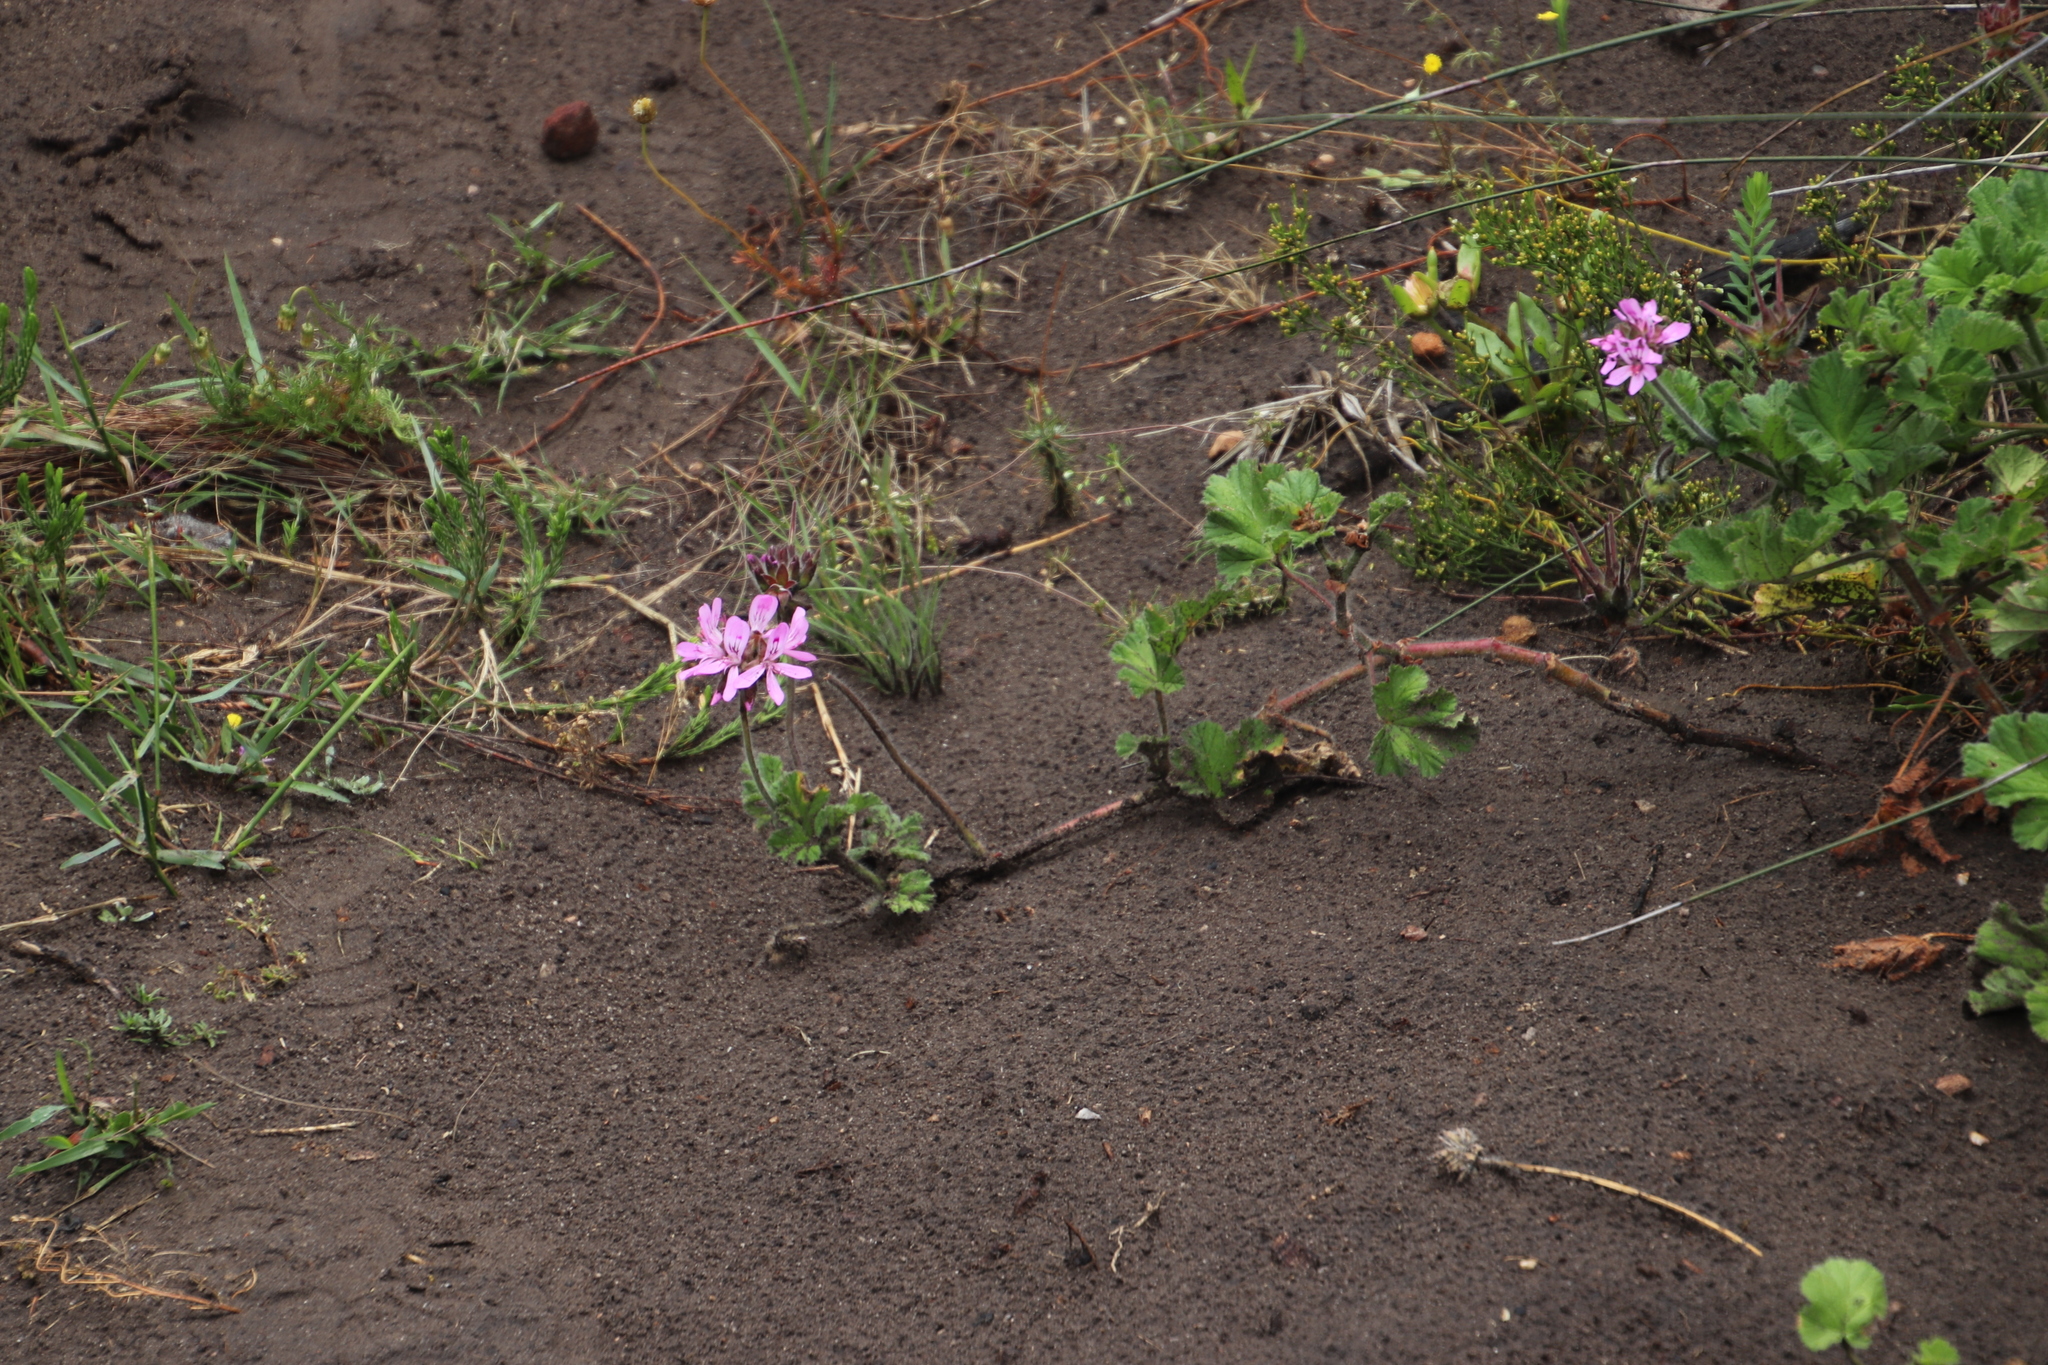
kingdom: Plantae
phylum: Tracheophyta
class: Magnoliopsida
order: Geraniales
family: Geraniaceae
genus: Pelargonium
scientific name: Pelargonium capitatum
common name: Rose scented geranium
